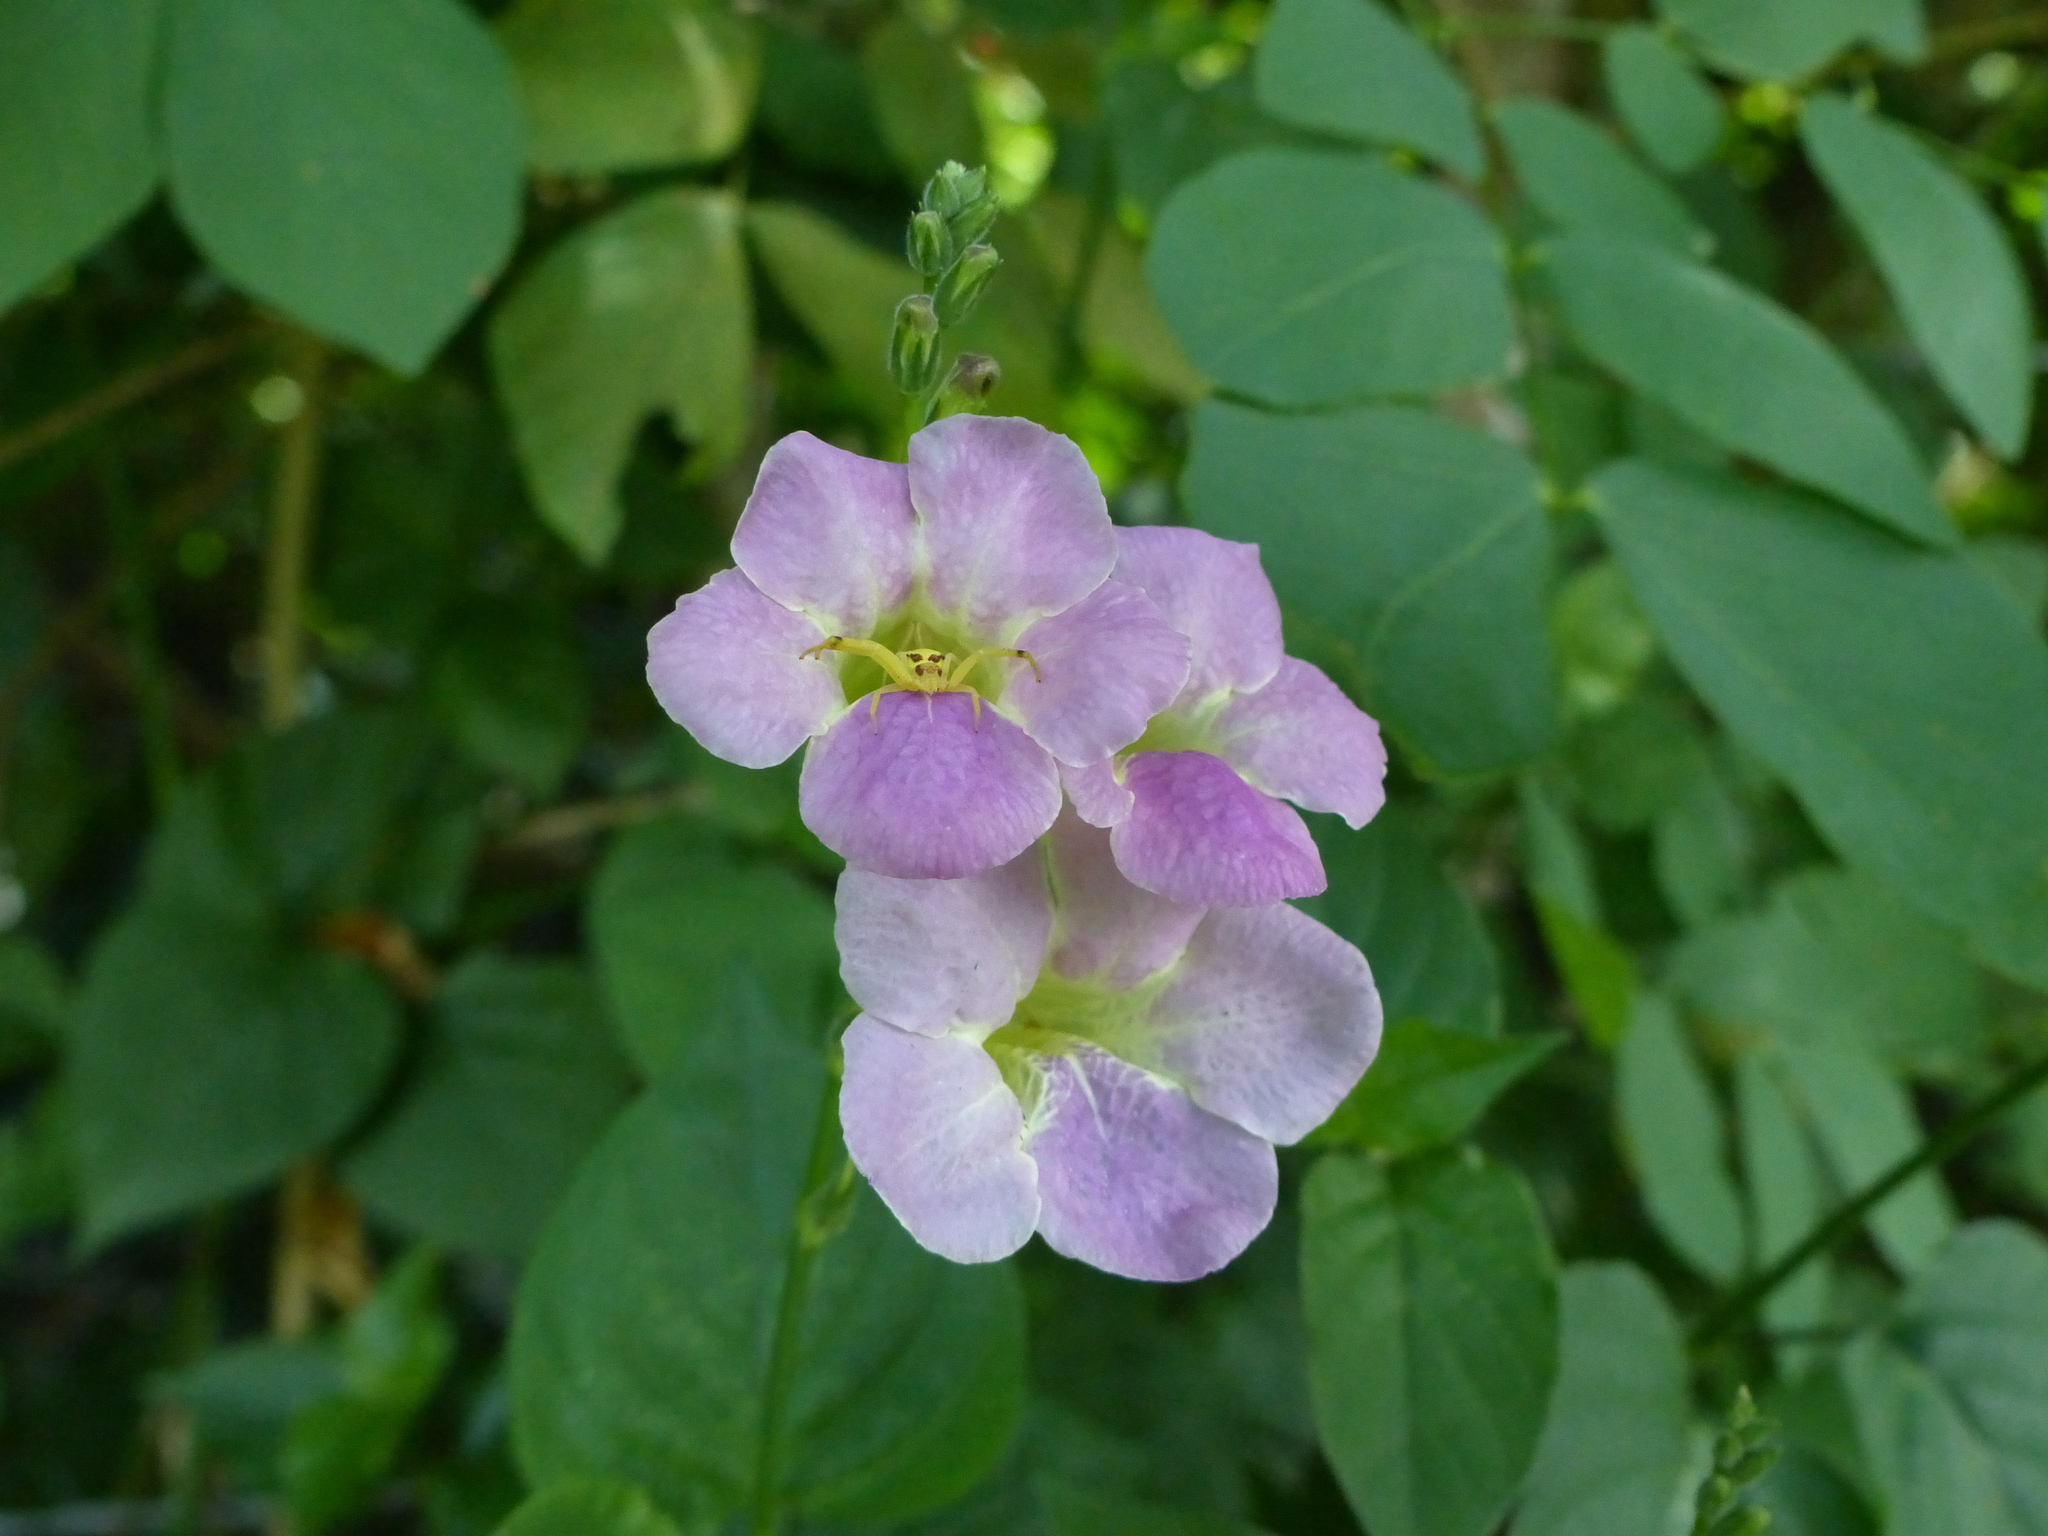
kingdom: Plantae
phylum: Tracheophyta
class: Magnoliopsida
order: Lamiales
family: Acanthaceae
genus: Asystasia
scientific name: Asystasia gangetica
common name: Chinese violet
